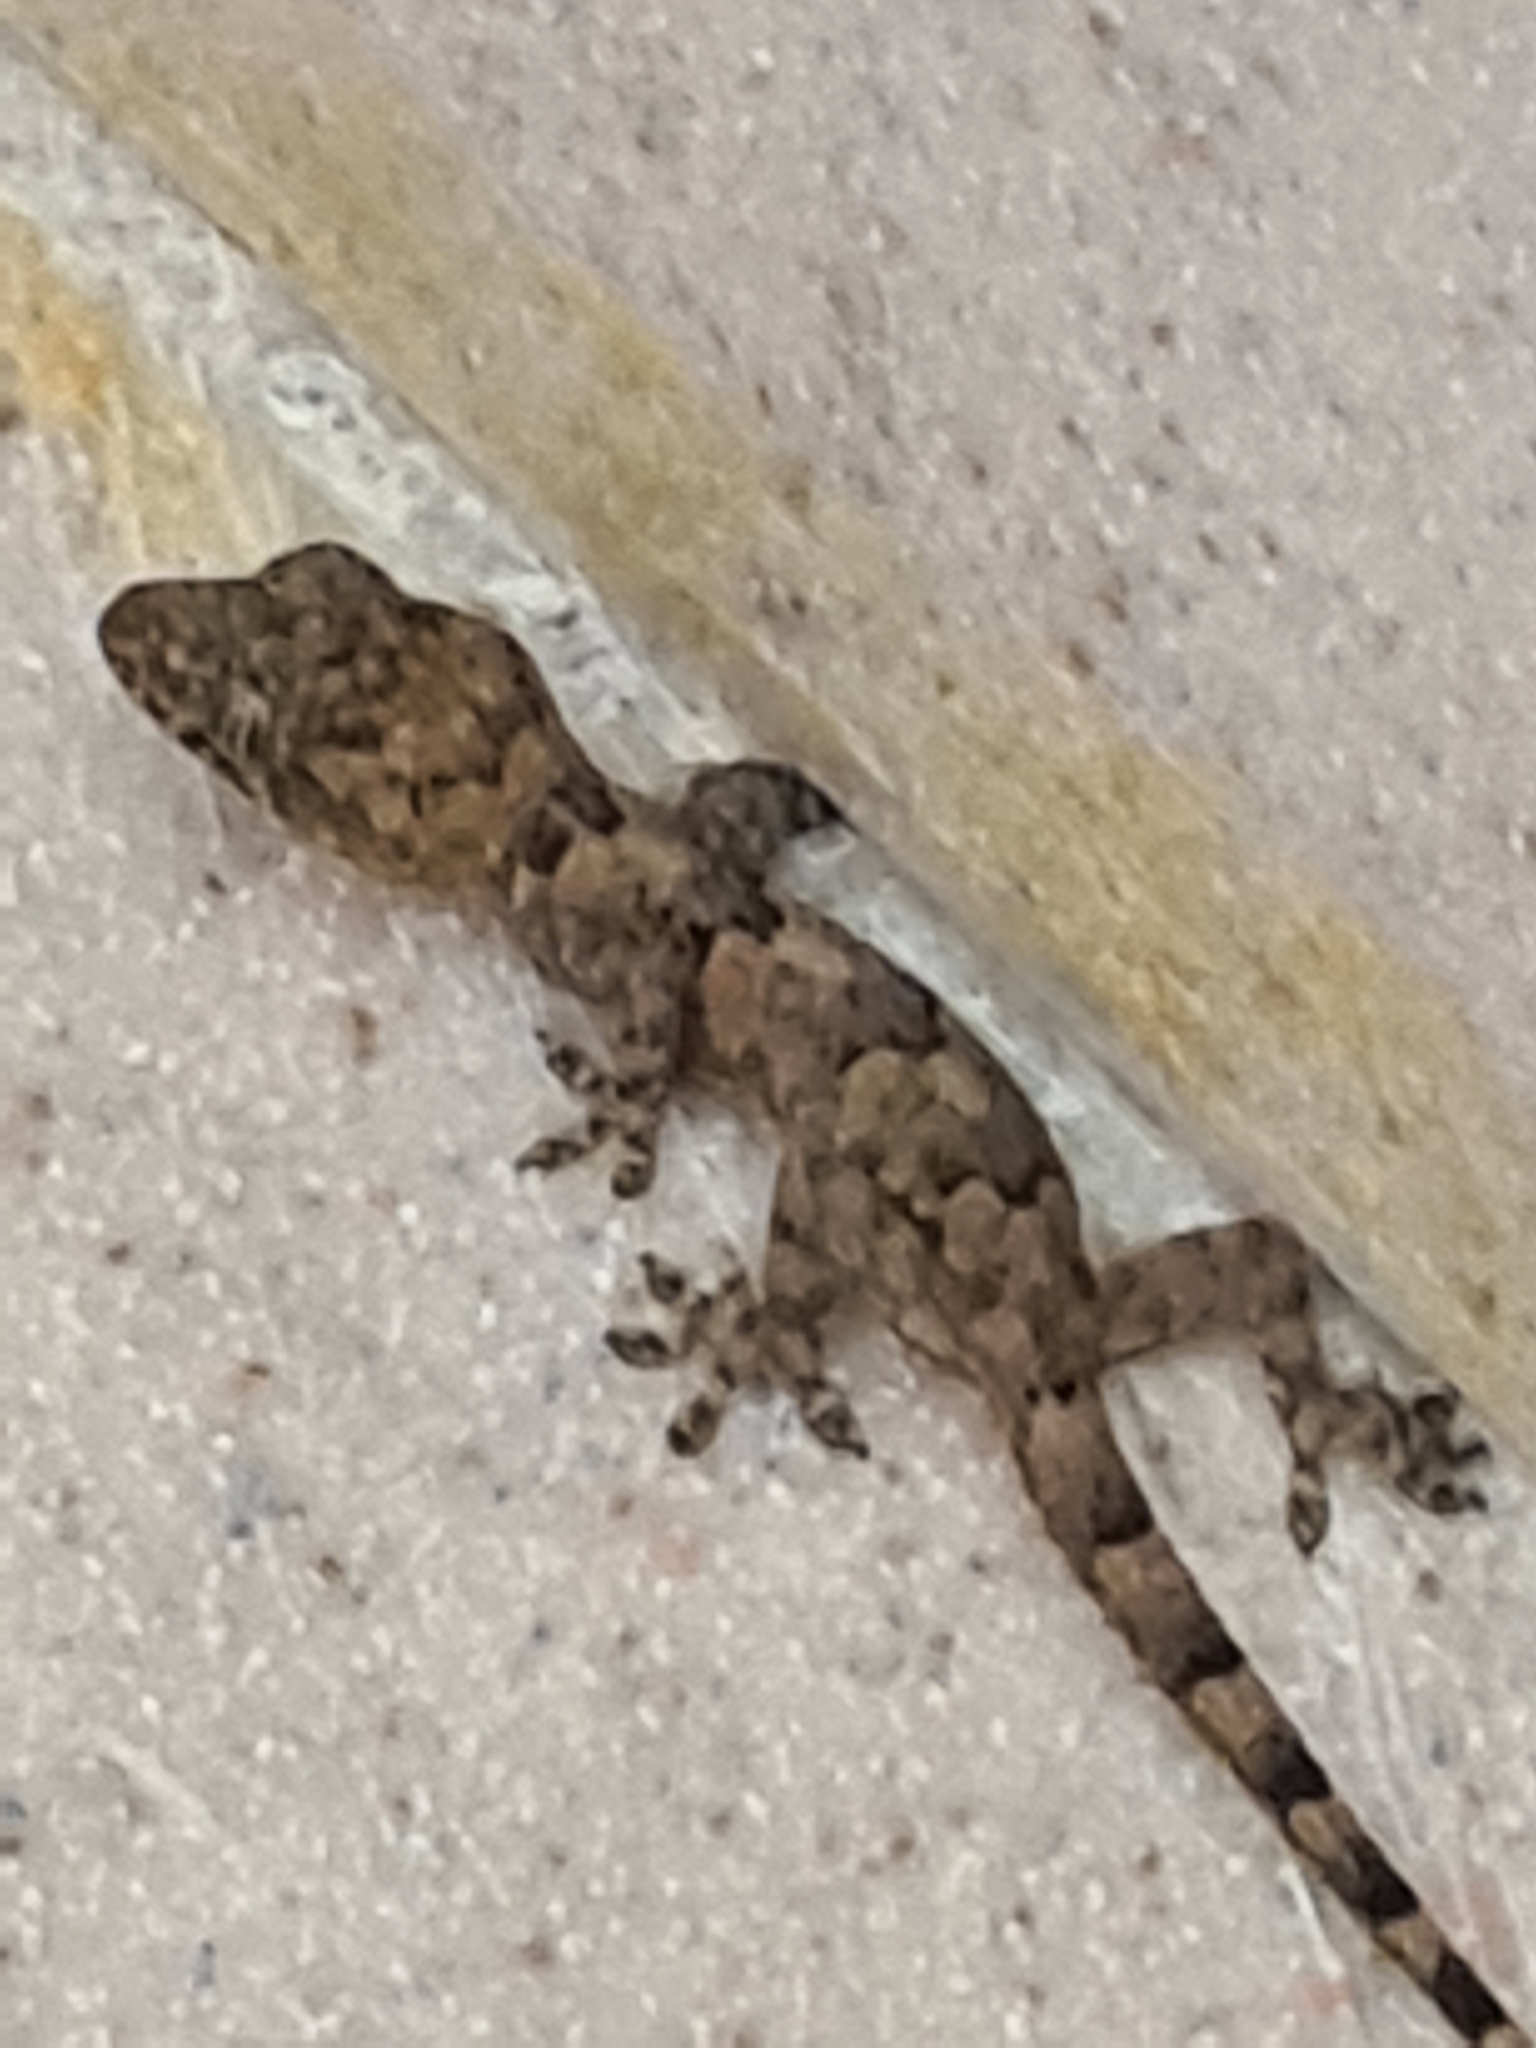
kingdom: Animalia
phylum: Chordata
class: Squamata
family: Gekkonidae
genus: Hemidactylus
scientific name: Hemidactylus mabouia
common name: House gecko
